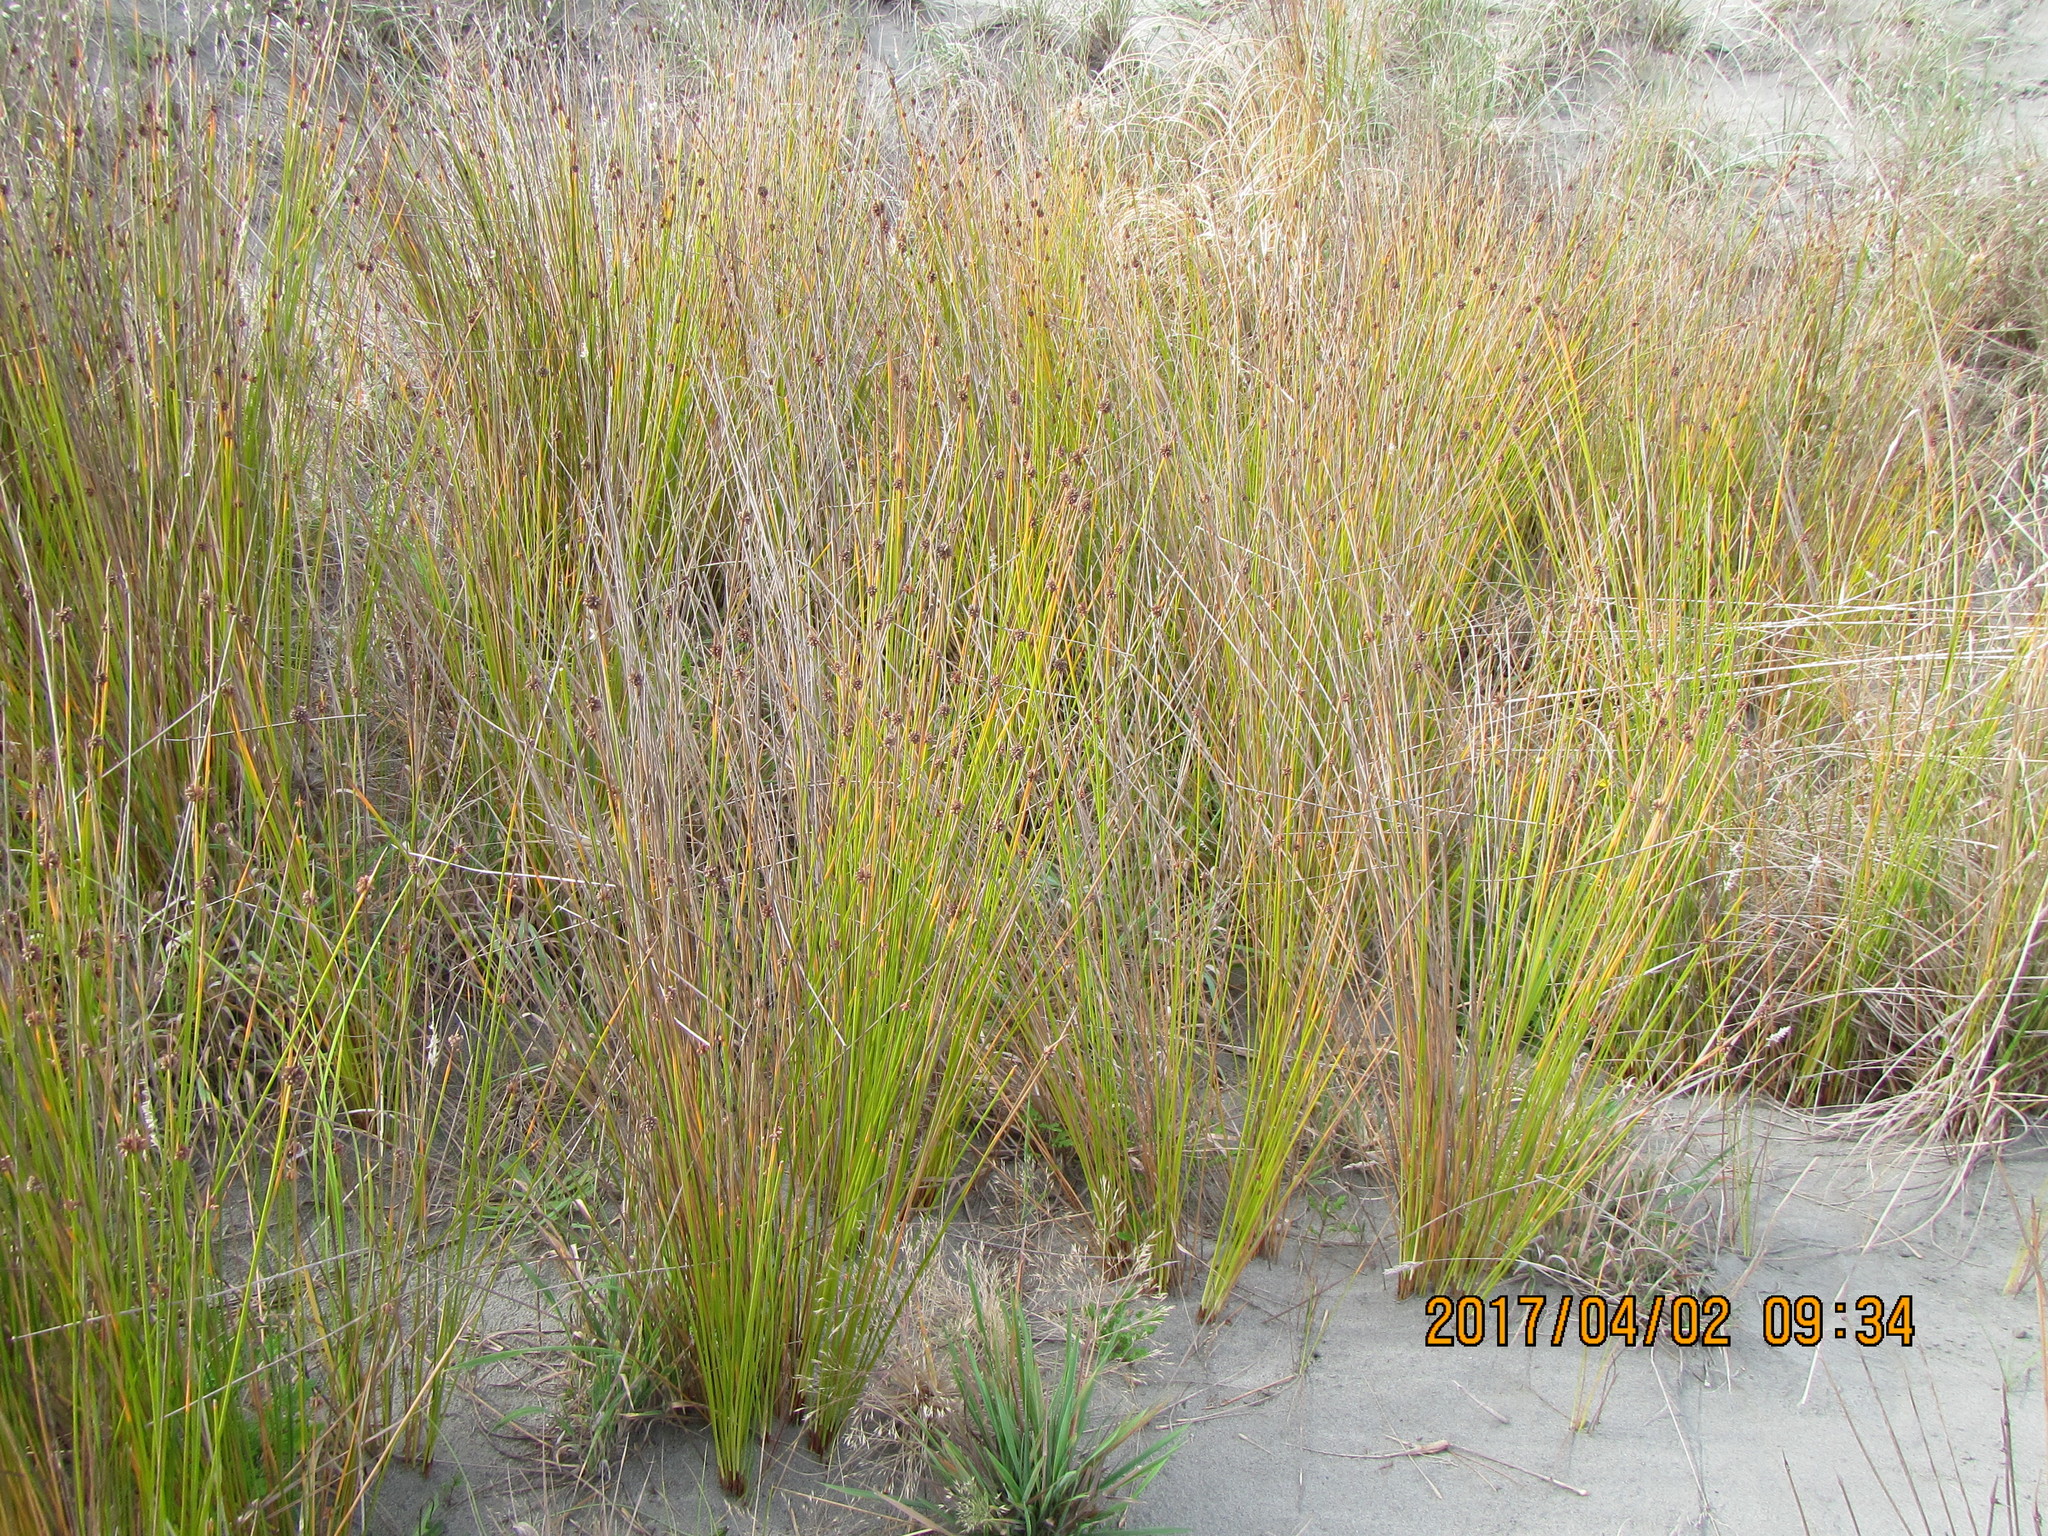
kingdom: Plantae
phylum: Tracheophyta
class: Liliopsida
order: Poales
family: Cyperaceae
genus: Ficinia
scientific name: Ficinia nodosa
